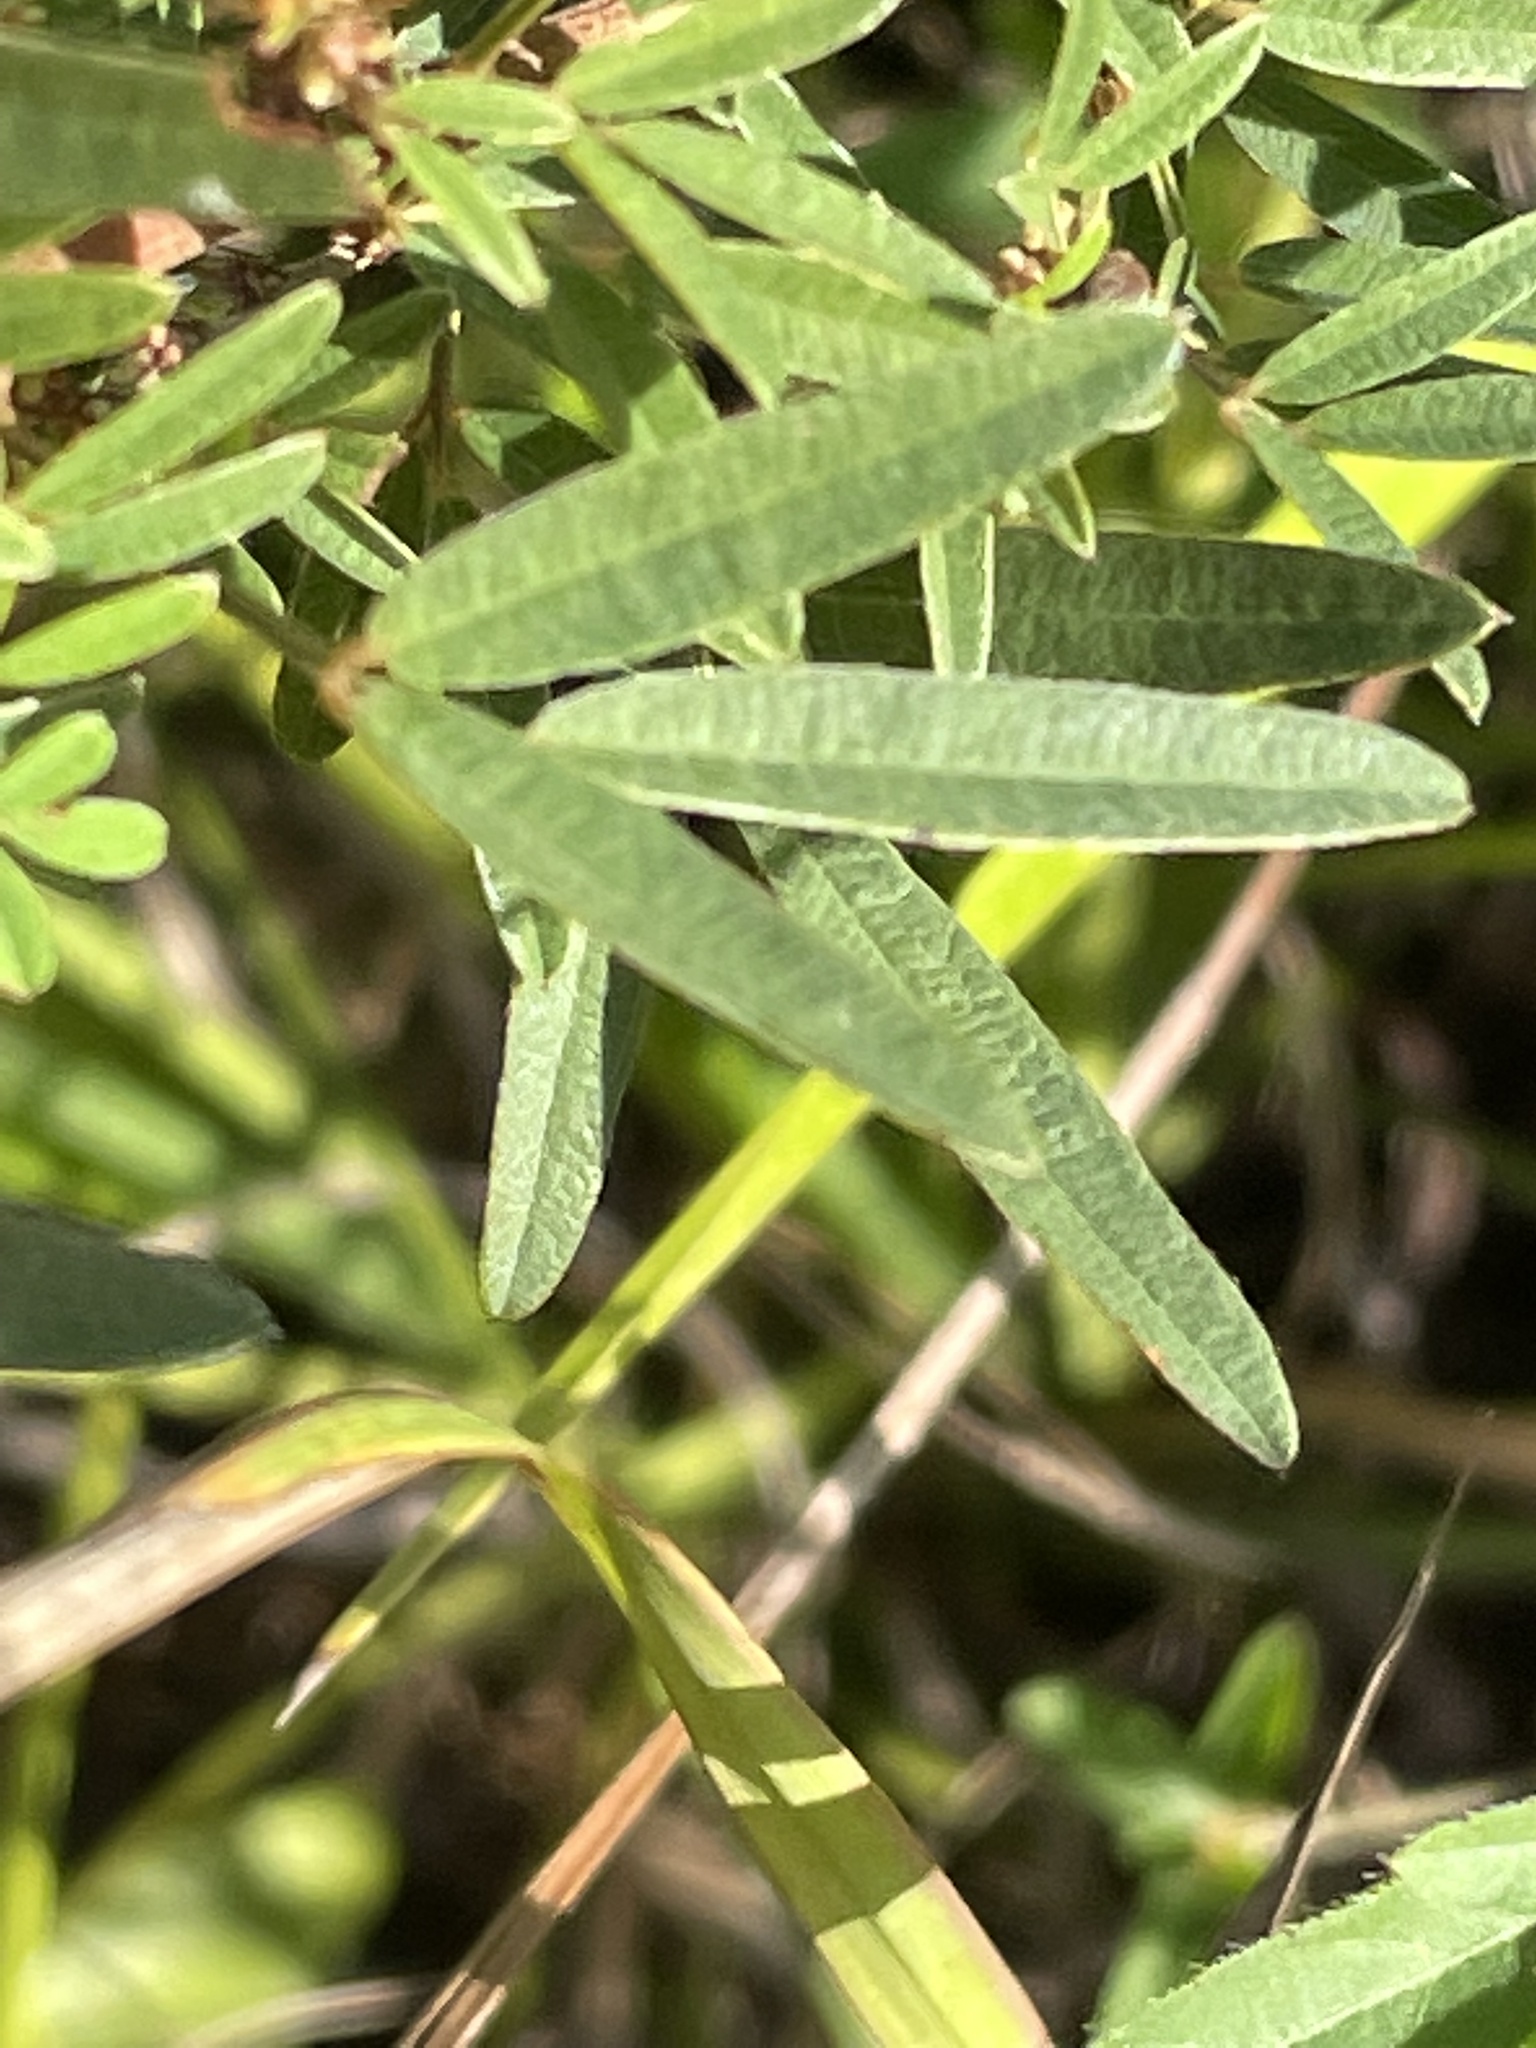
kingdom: Plantae
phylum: Tracheophyta
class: Magnoliopsida
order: Fabales
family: Fabaceae
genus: Lespedeza
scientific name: Lespedeza virginica
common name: Slender bush-clover
